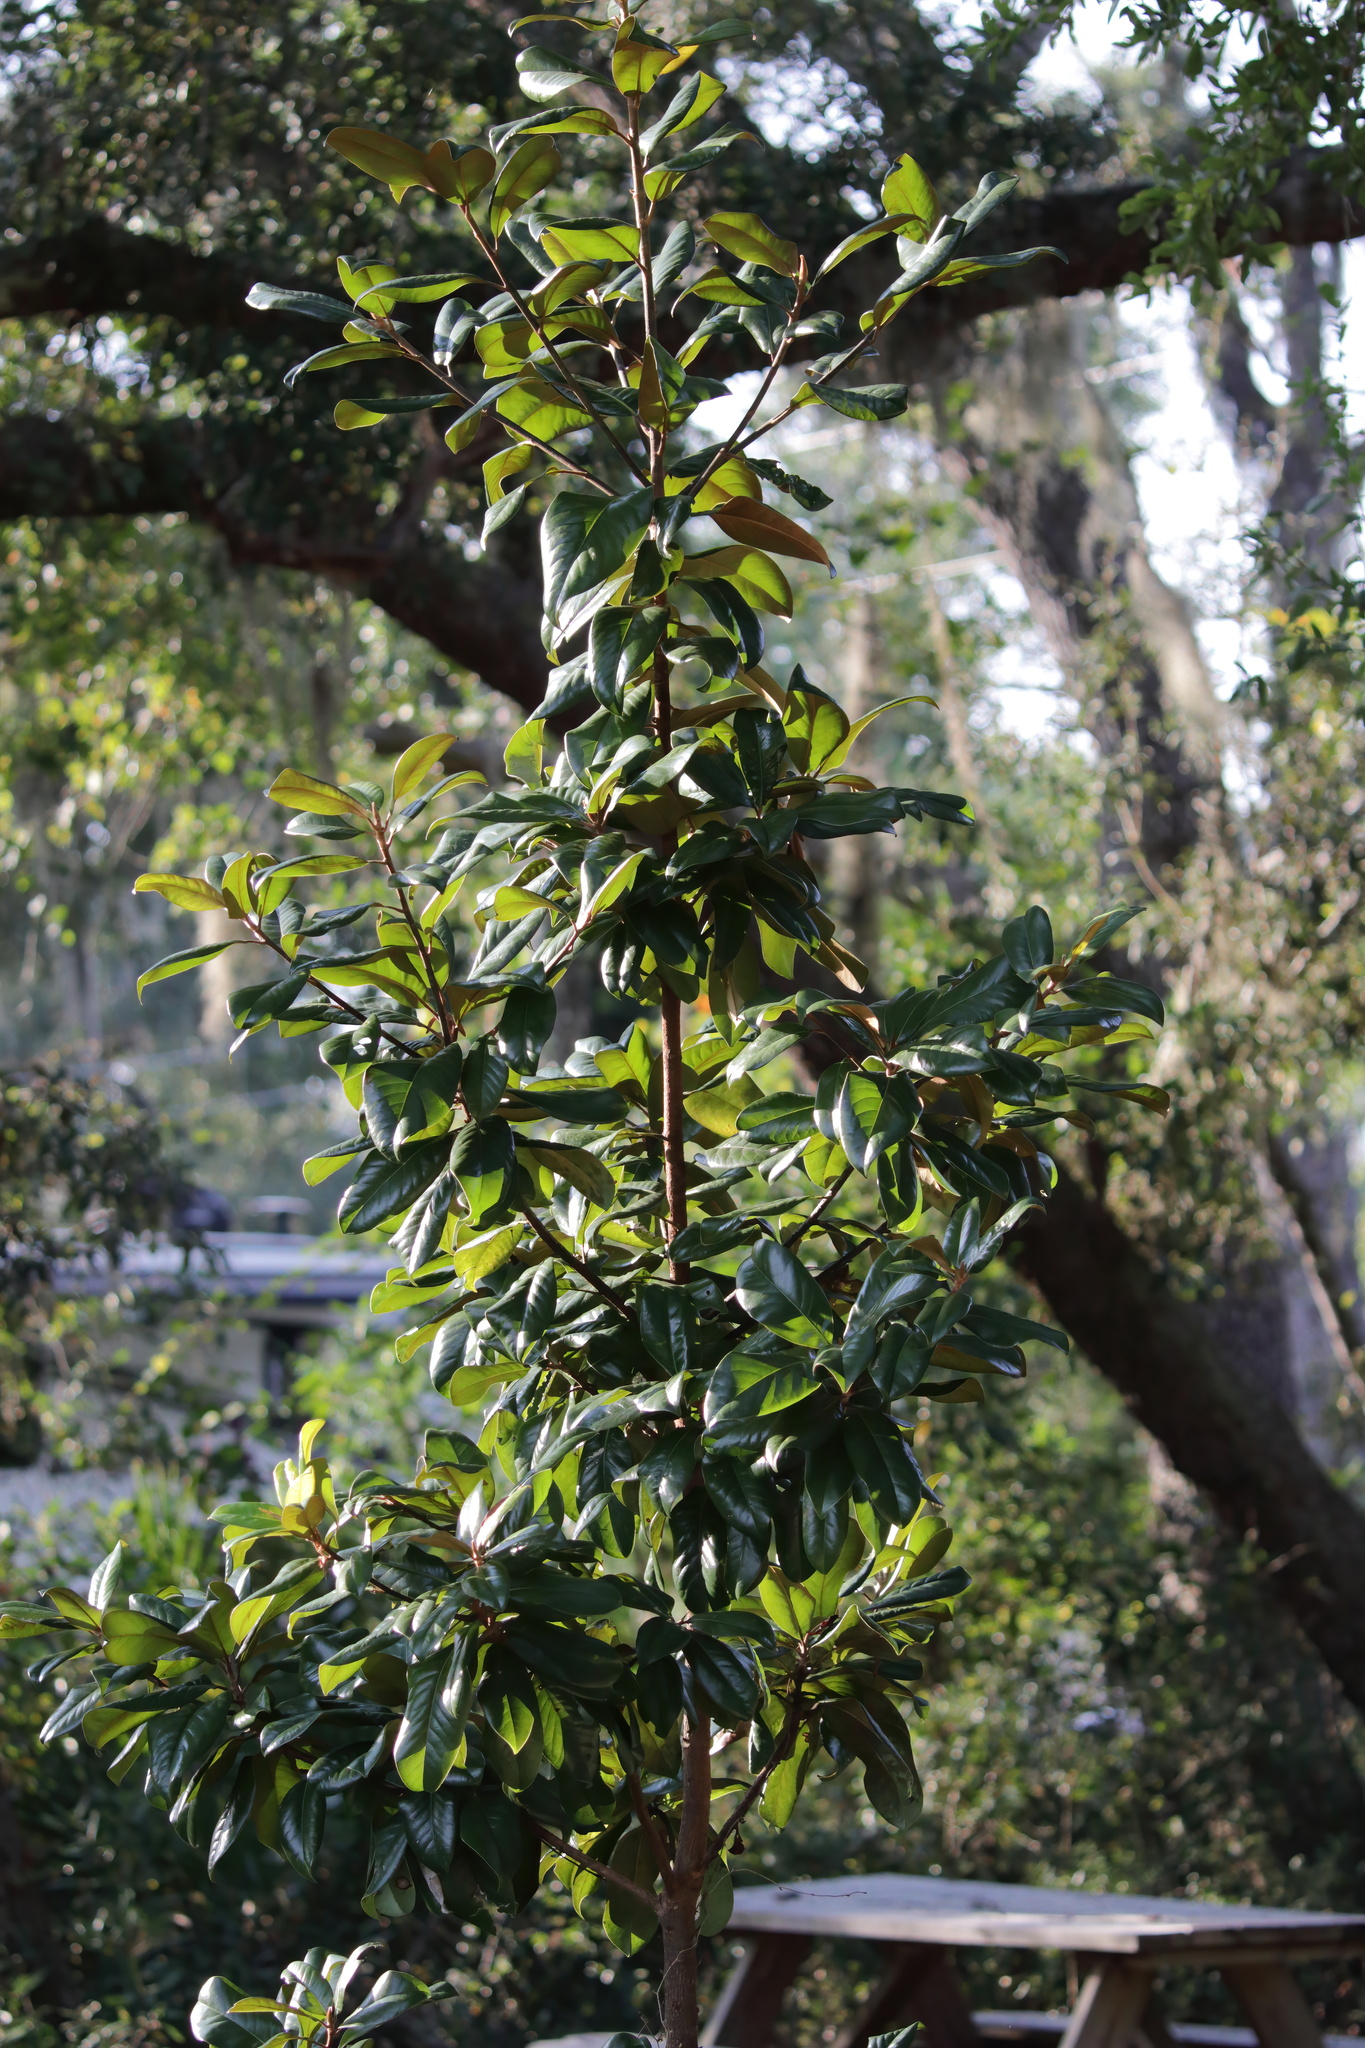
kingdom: Plantae
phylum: Tracheophyta
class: Magnoliopsida
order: Magnoliales
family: Magnoliaceae
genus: Magnolia
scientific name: Magnolia grandiflora
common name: Southern magnolia
